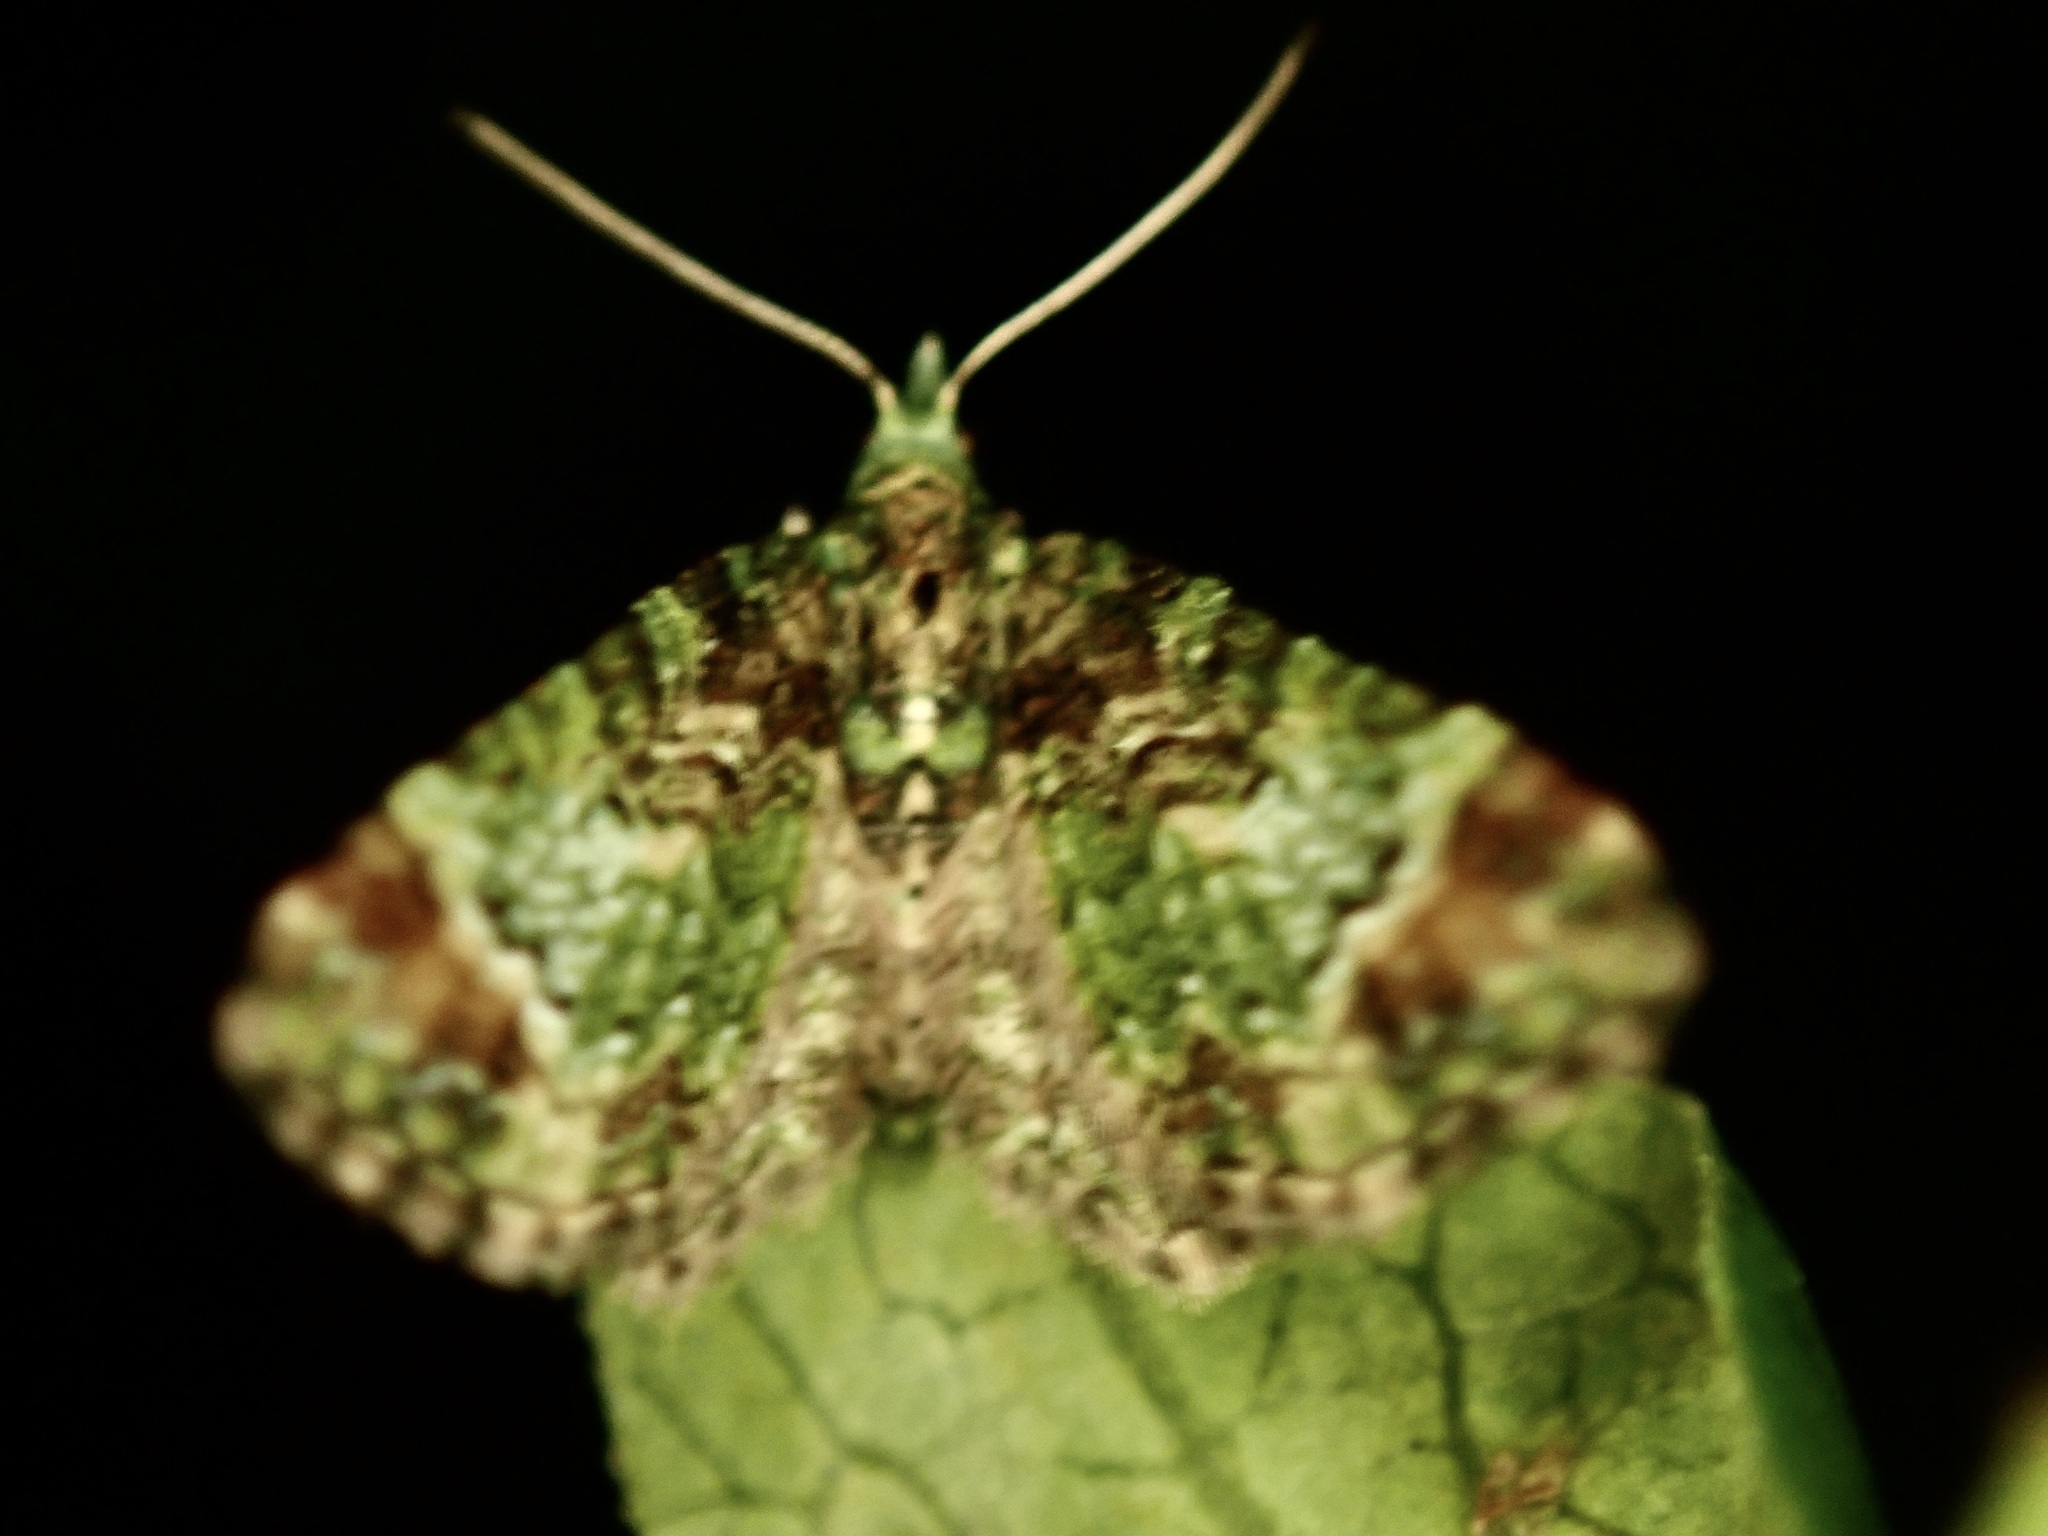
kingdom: Animalia
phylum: Arthropoda
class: Insecta
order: Lepidoptera
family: Geometridae
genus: Pasiphila
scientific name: Pasiphila sandycias
